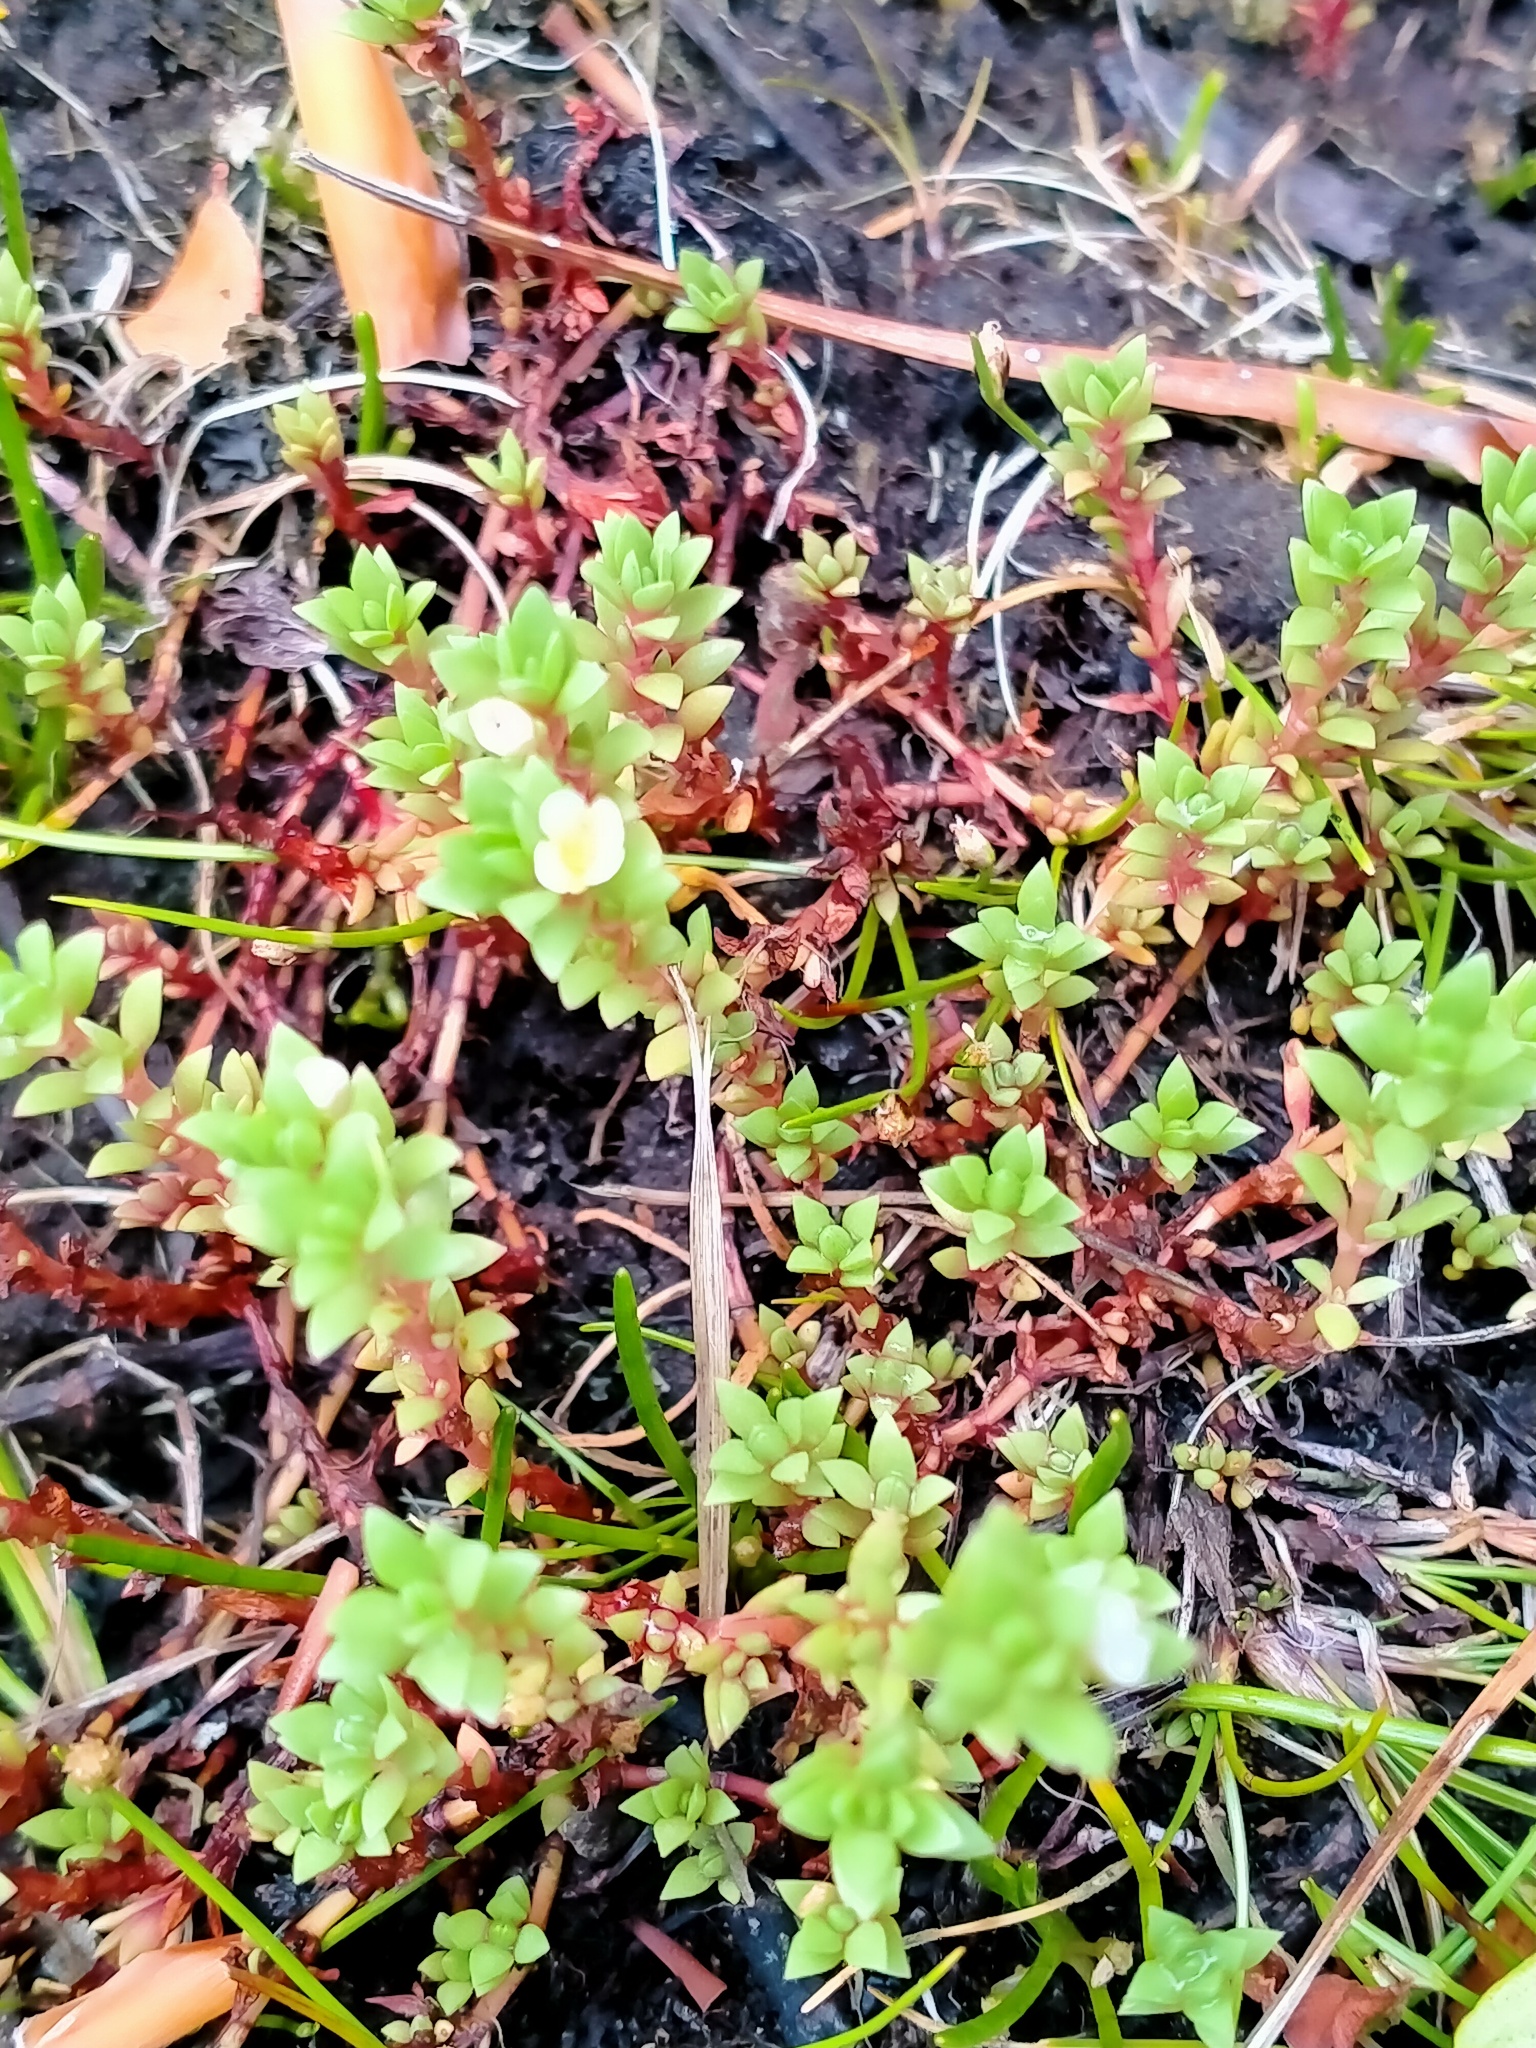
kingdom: Plantae
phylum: Tracheophyta
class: Magnoliopsida
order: Saxifragales
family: Crassulaceae
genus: Crassula
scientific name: Crassula moschata
